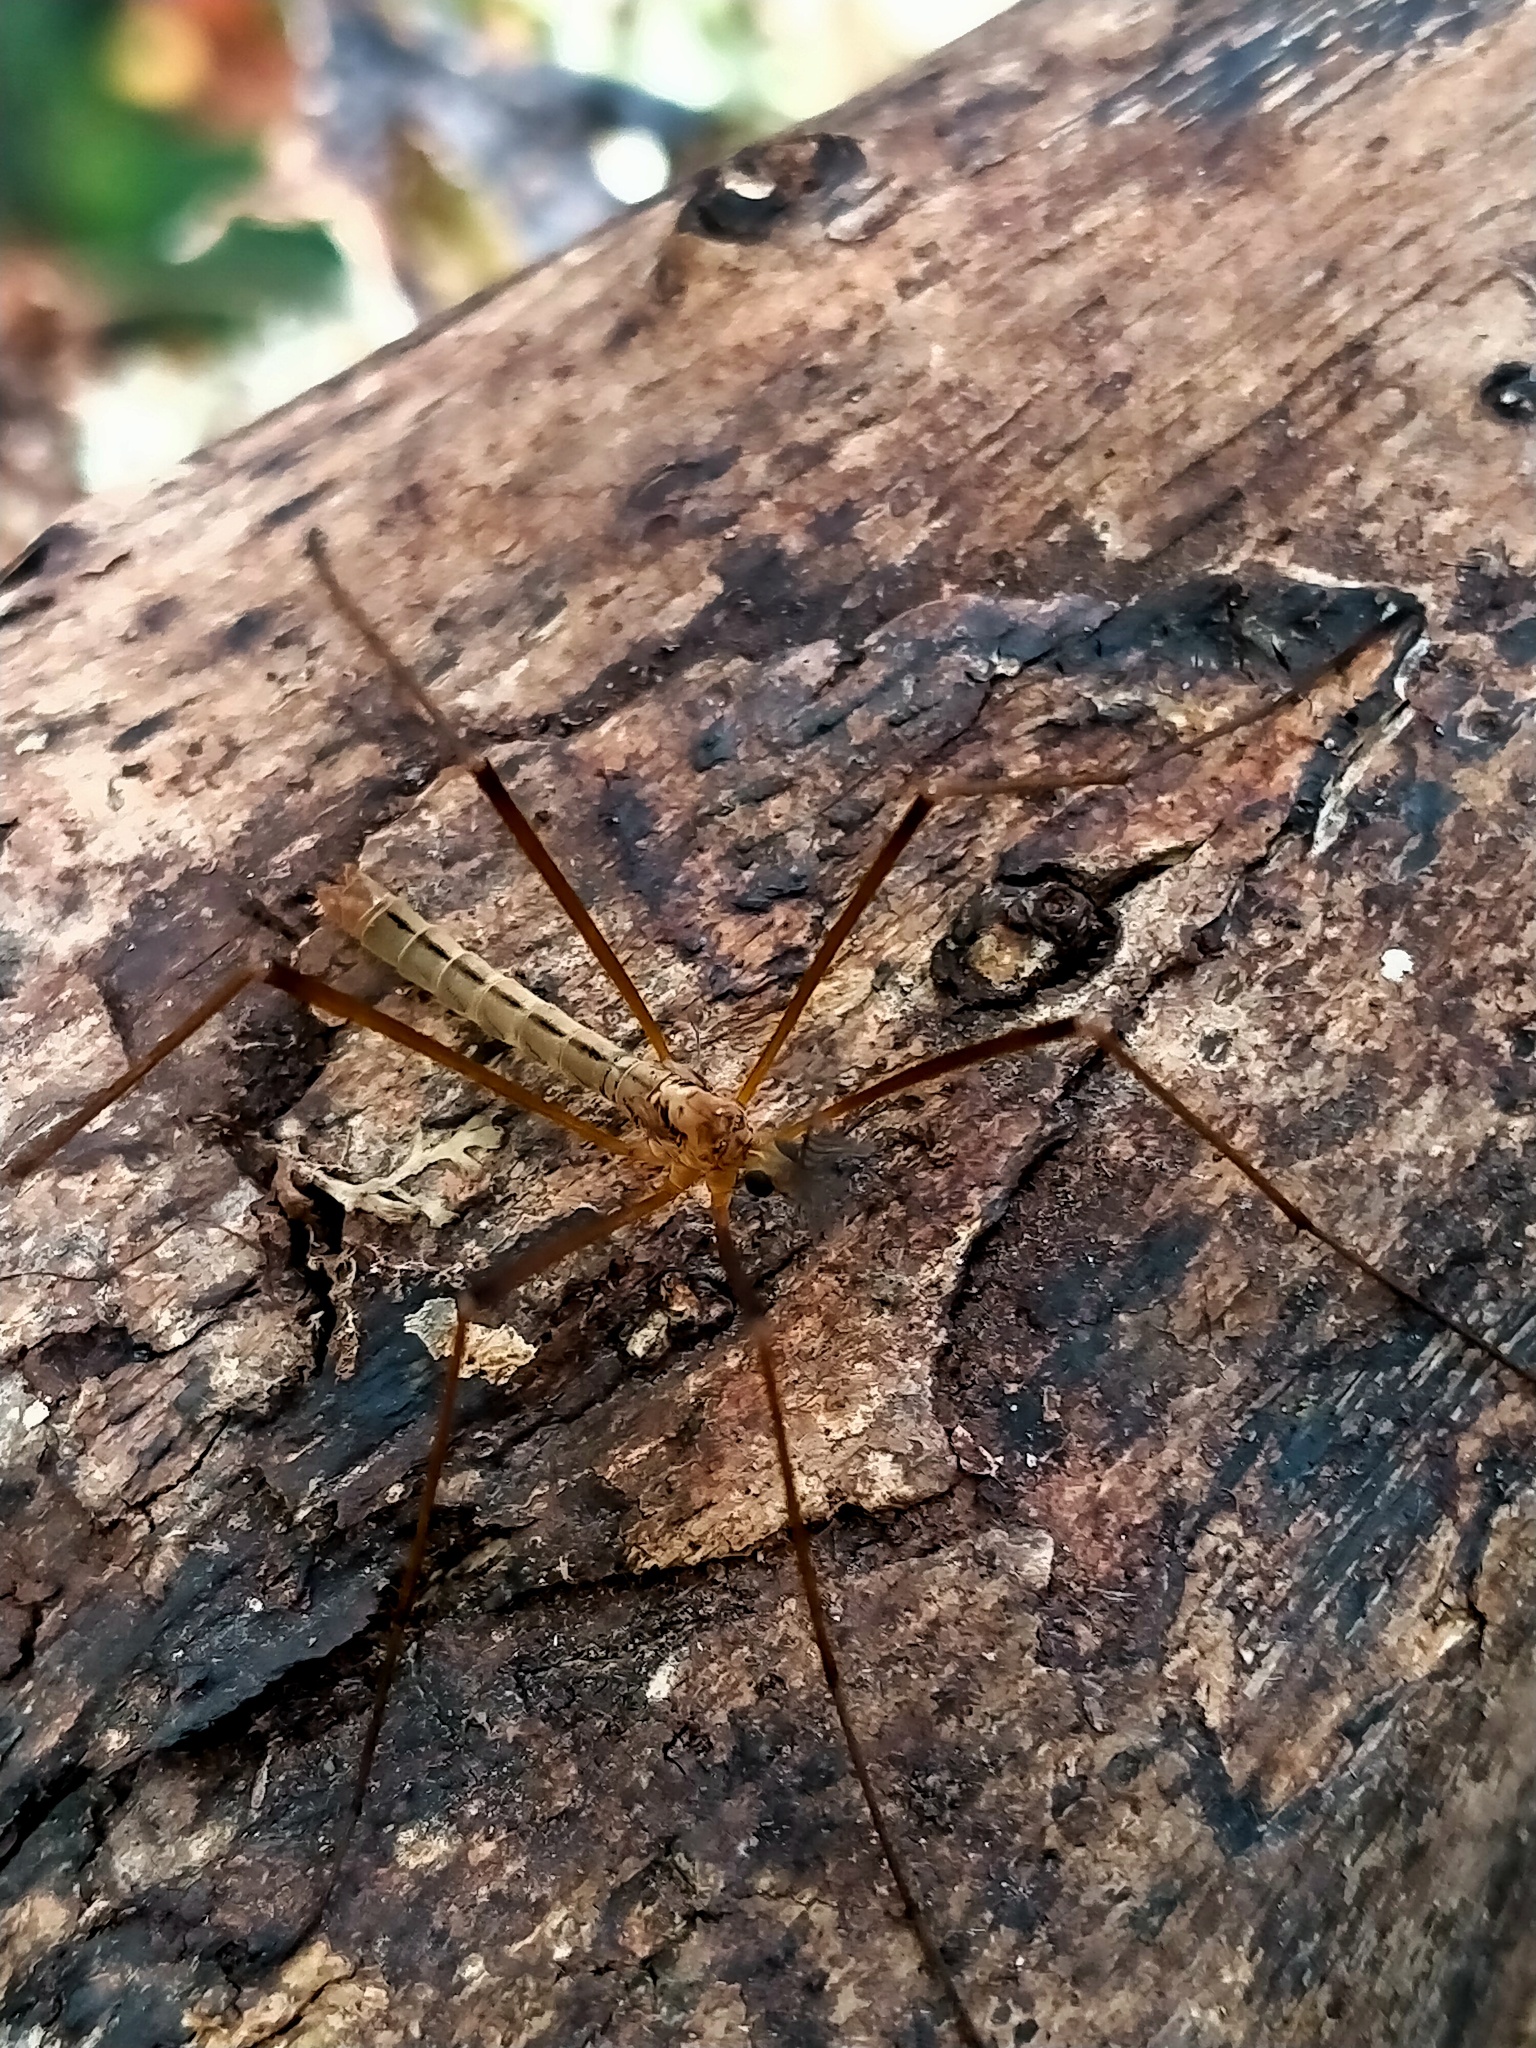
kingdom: Animalia
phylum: Arthropoda
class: Insecta
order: Diptera
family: Limoniidae
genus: Gynoplistia
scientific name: Gynoplistia resecta
